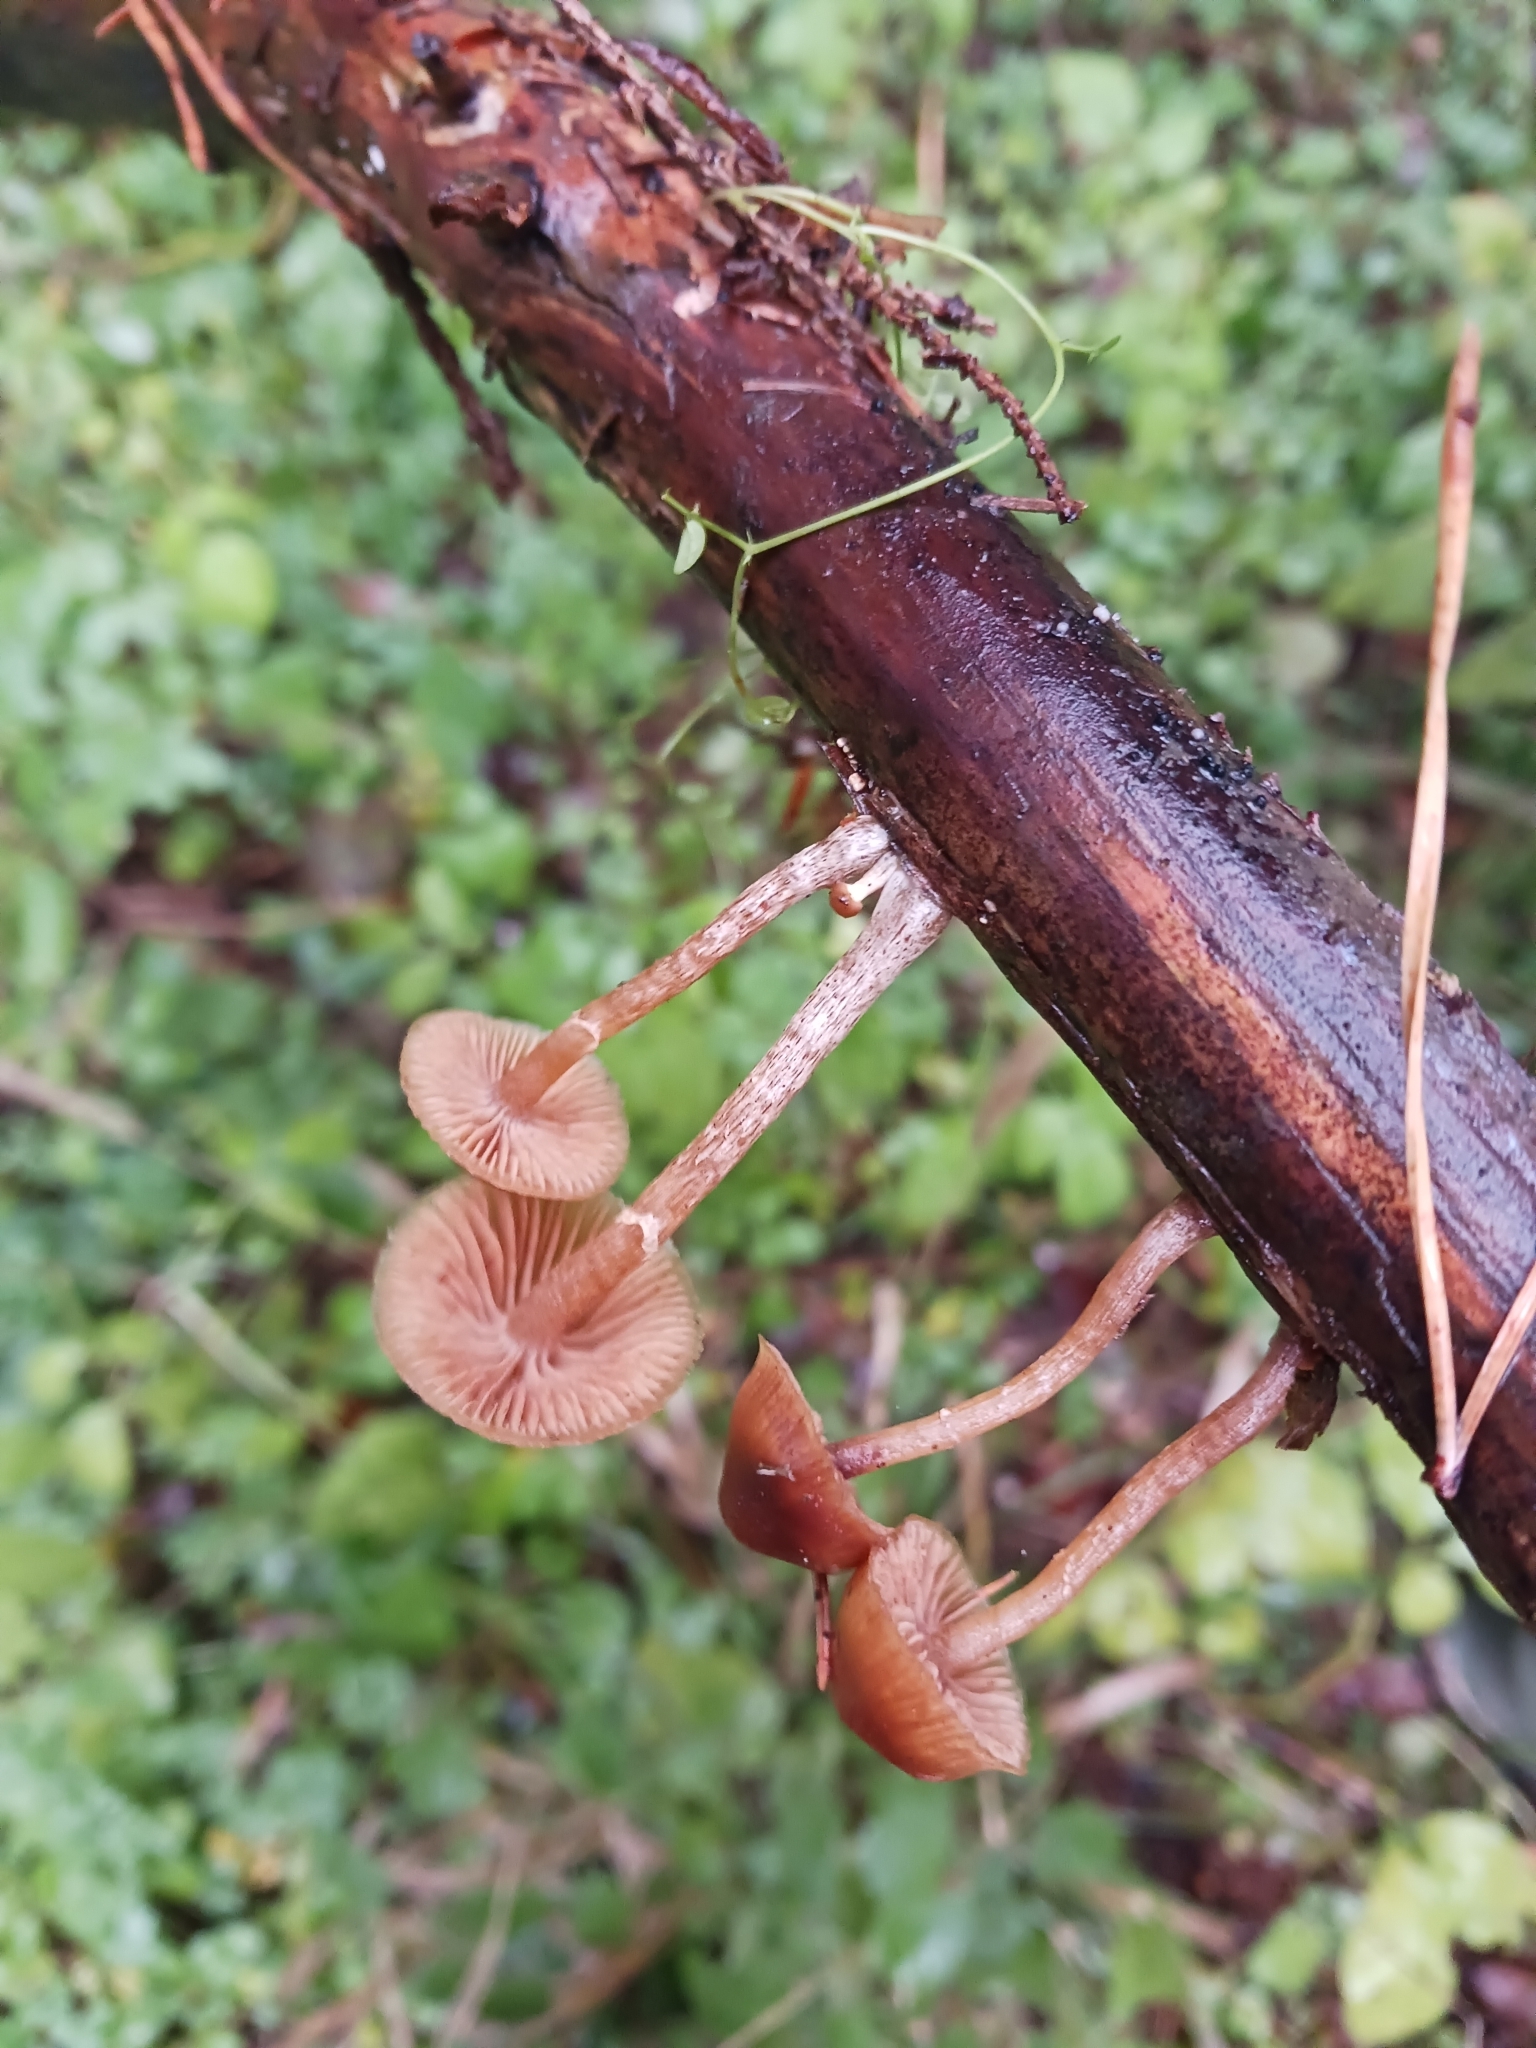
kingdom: Fungi
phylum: Basidiomycota
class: Agaricomycetes
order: Agaricales
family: Hymenogastraceae
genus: Galerina
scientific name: Galerina marginata
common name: Funeral bell
